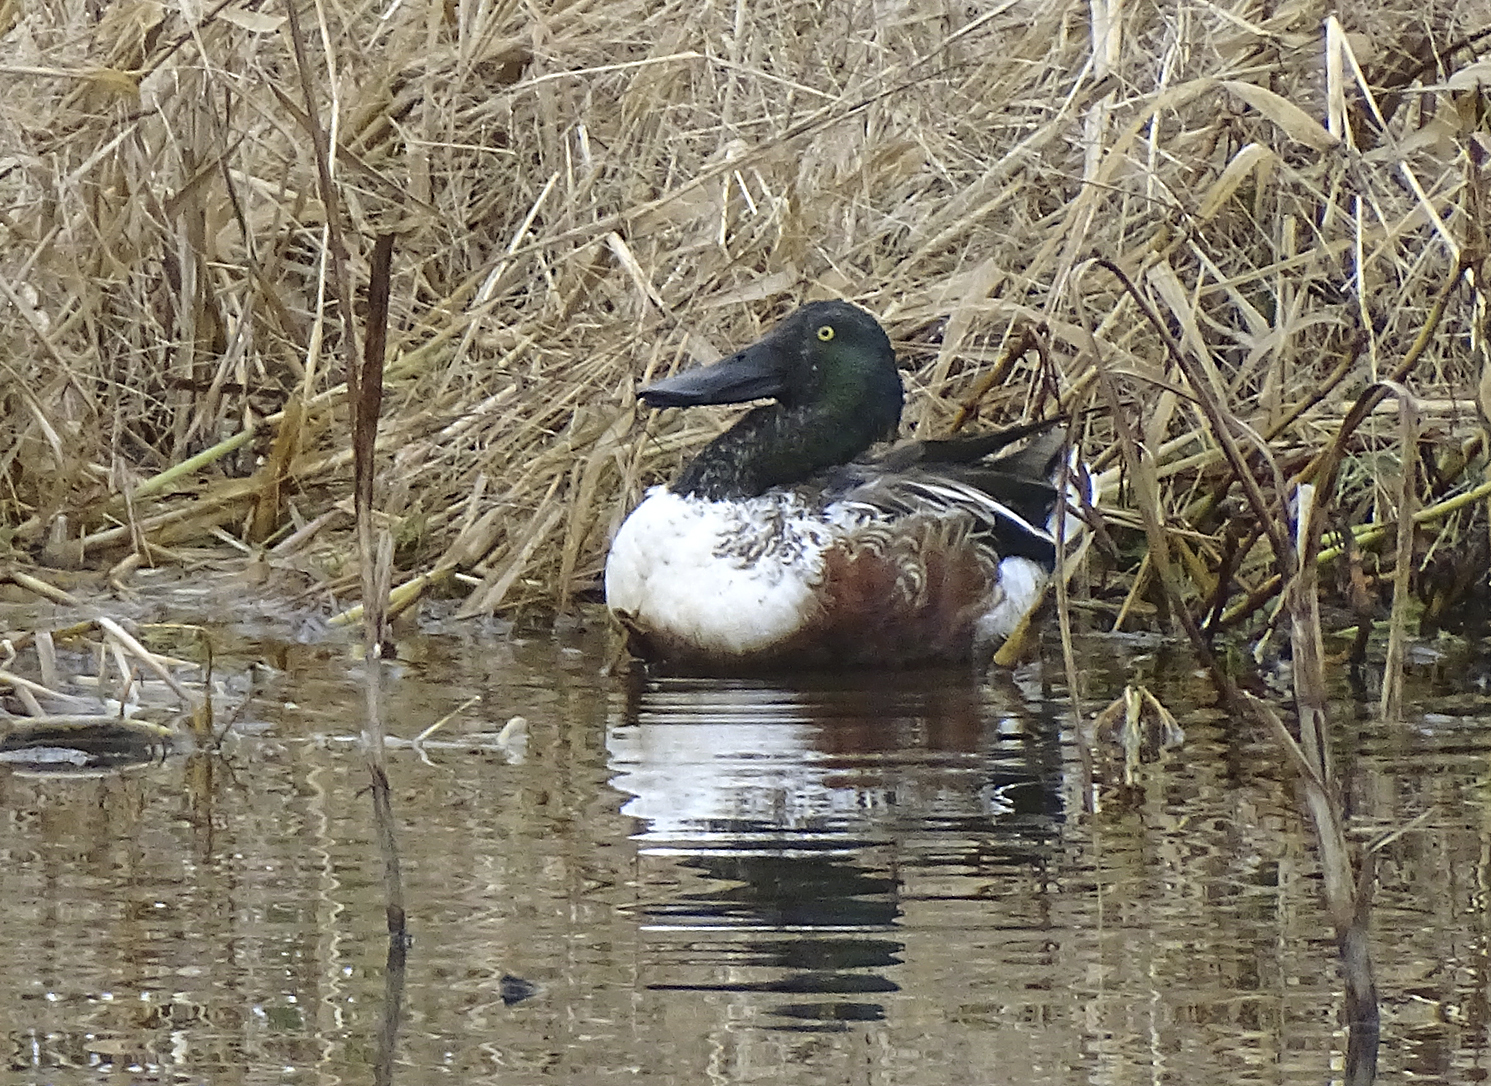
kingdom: Animalia
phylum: Chordata
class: Aves
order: Anseriformes
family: Anatidae
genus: Spatula
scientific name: Spatula clypeata
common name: Northern shoveler
